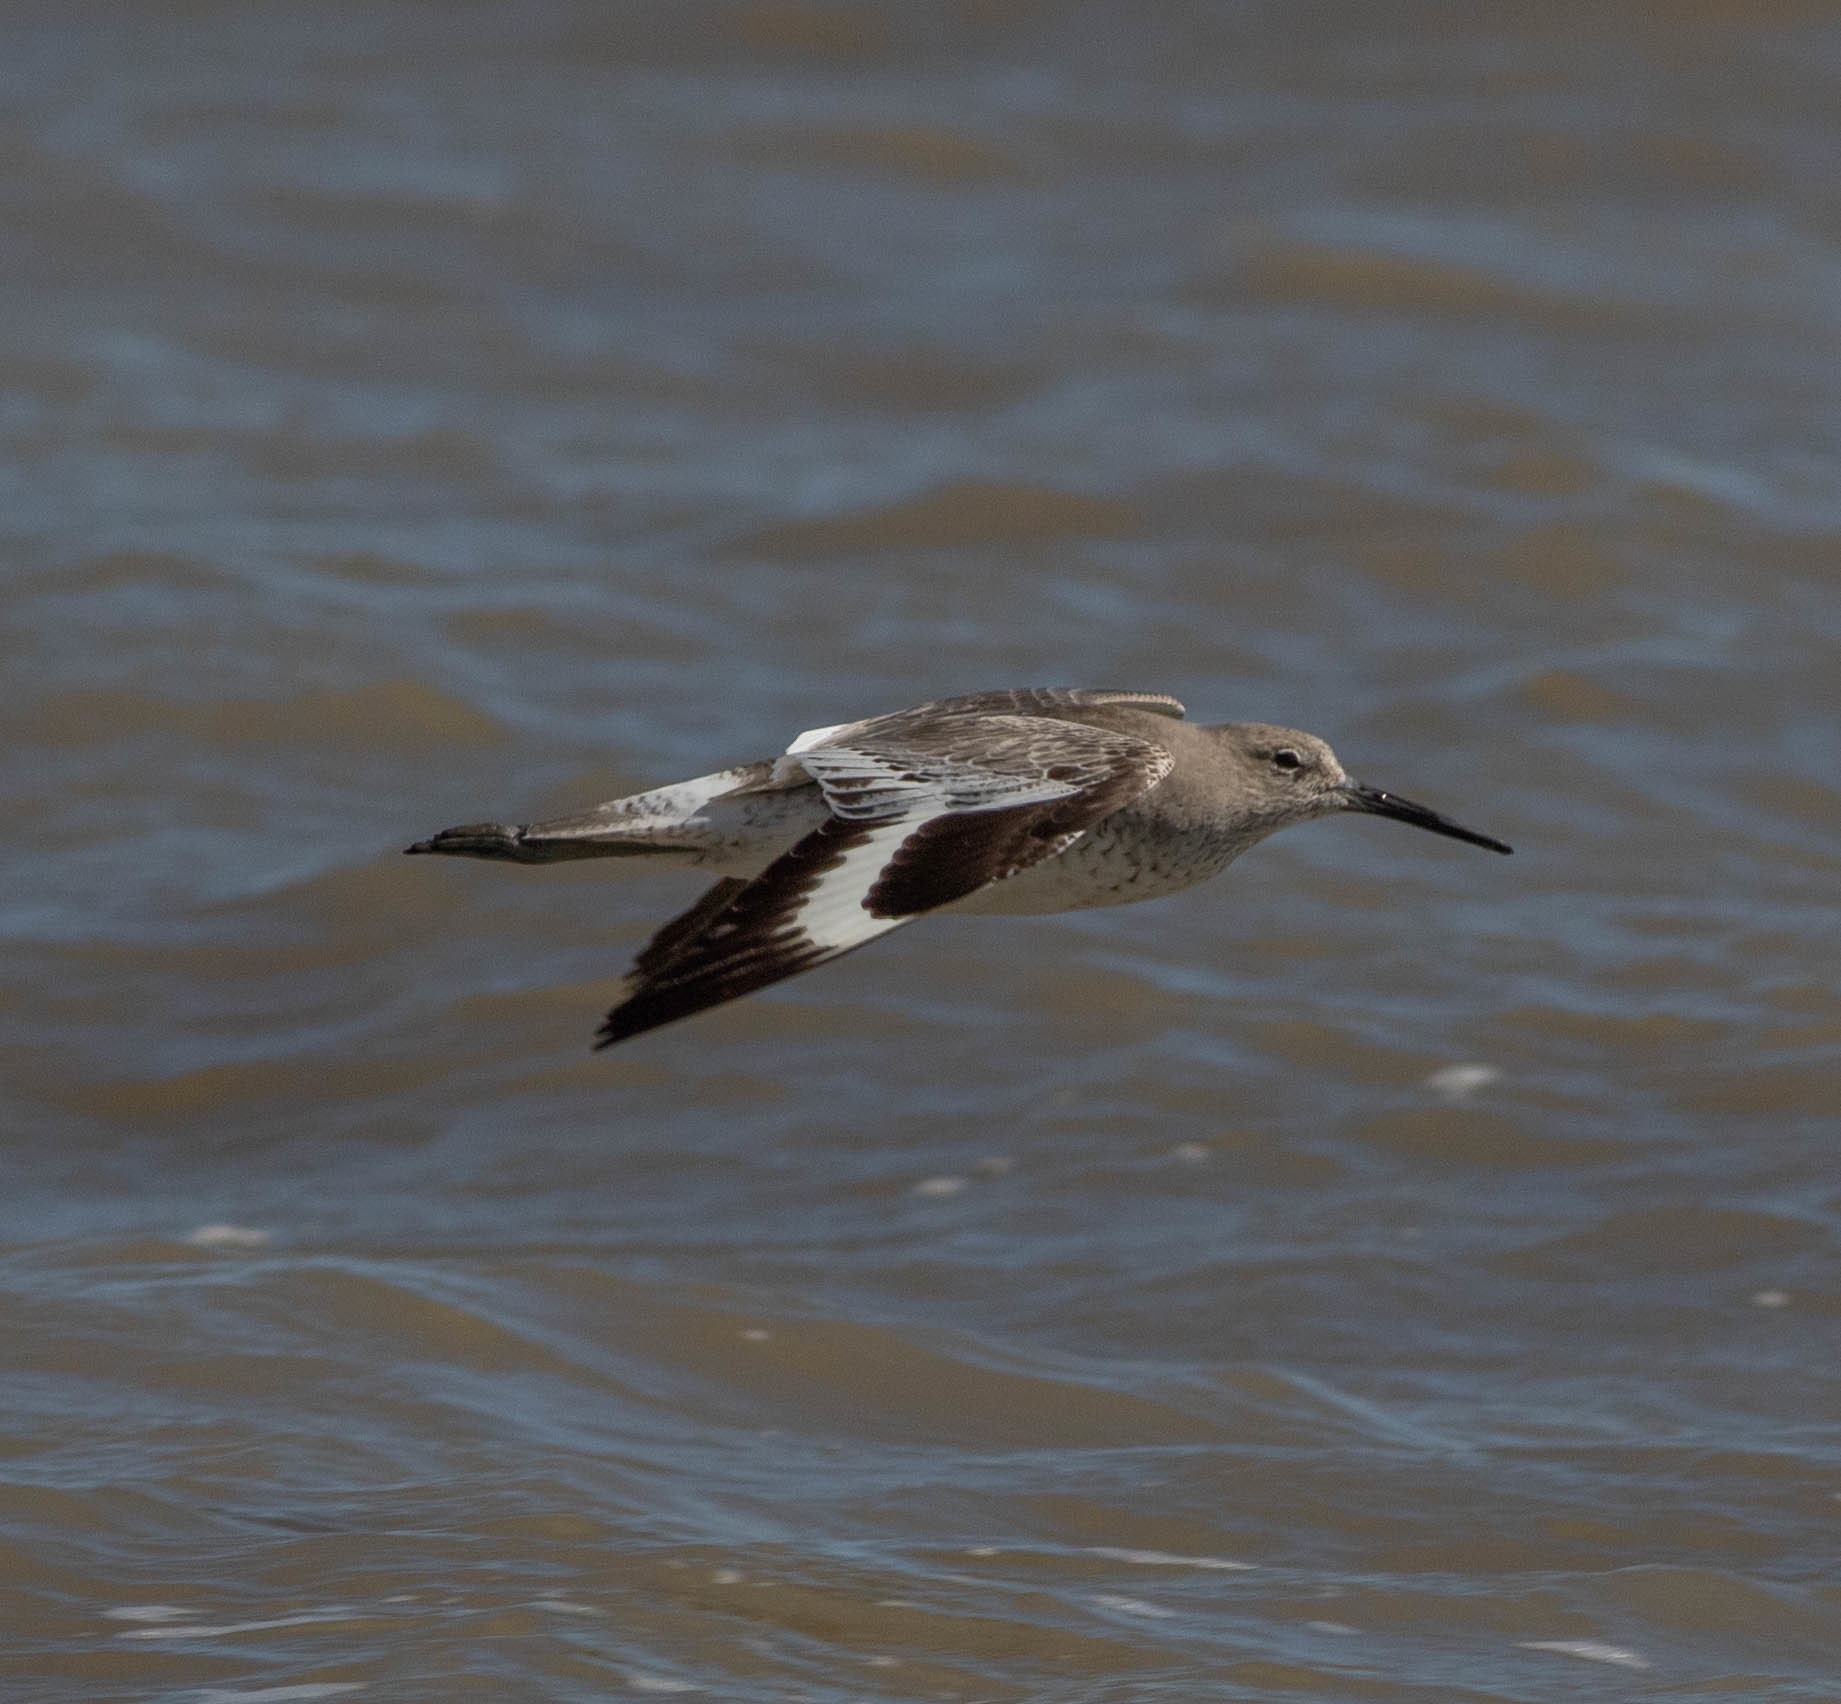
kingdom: Animalia
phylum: Chordata
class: Aves
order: Charadriiformes
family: Scolopacidae
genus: Tringa
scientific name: Tringa semipalmata
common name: Willet
